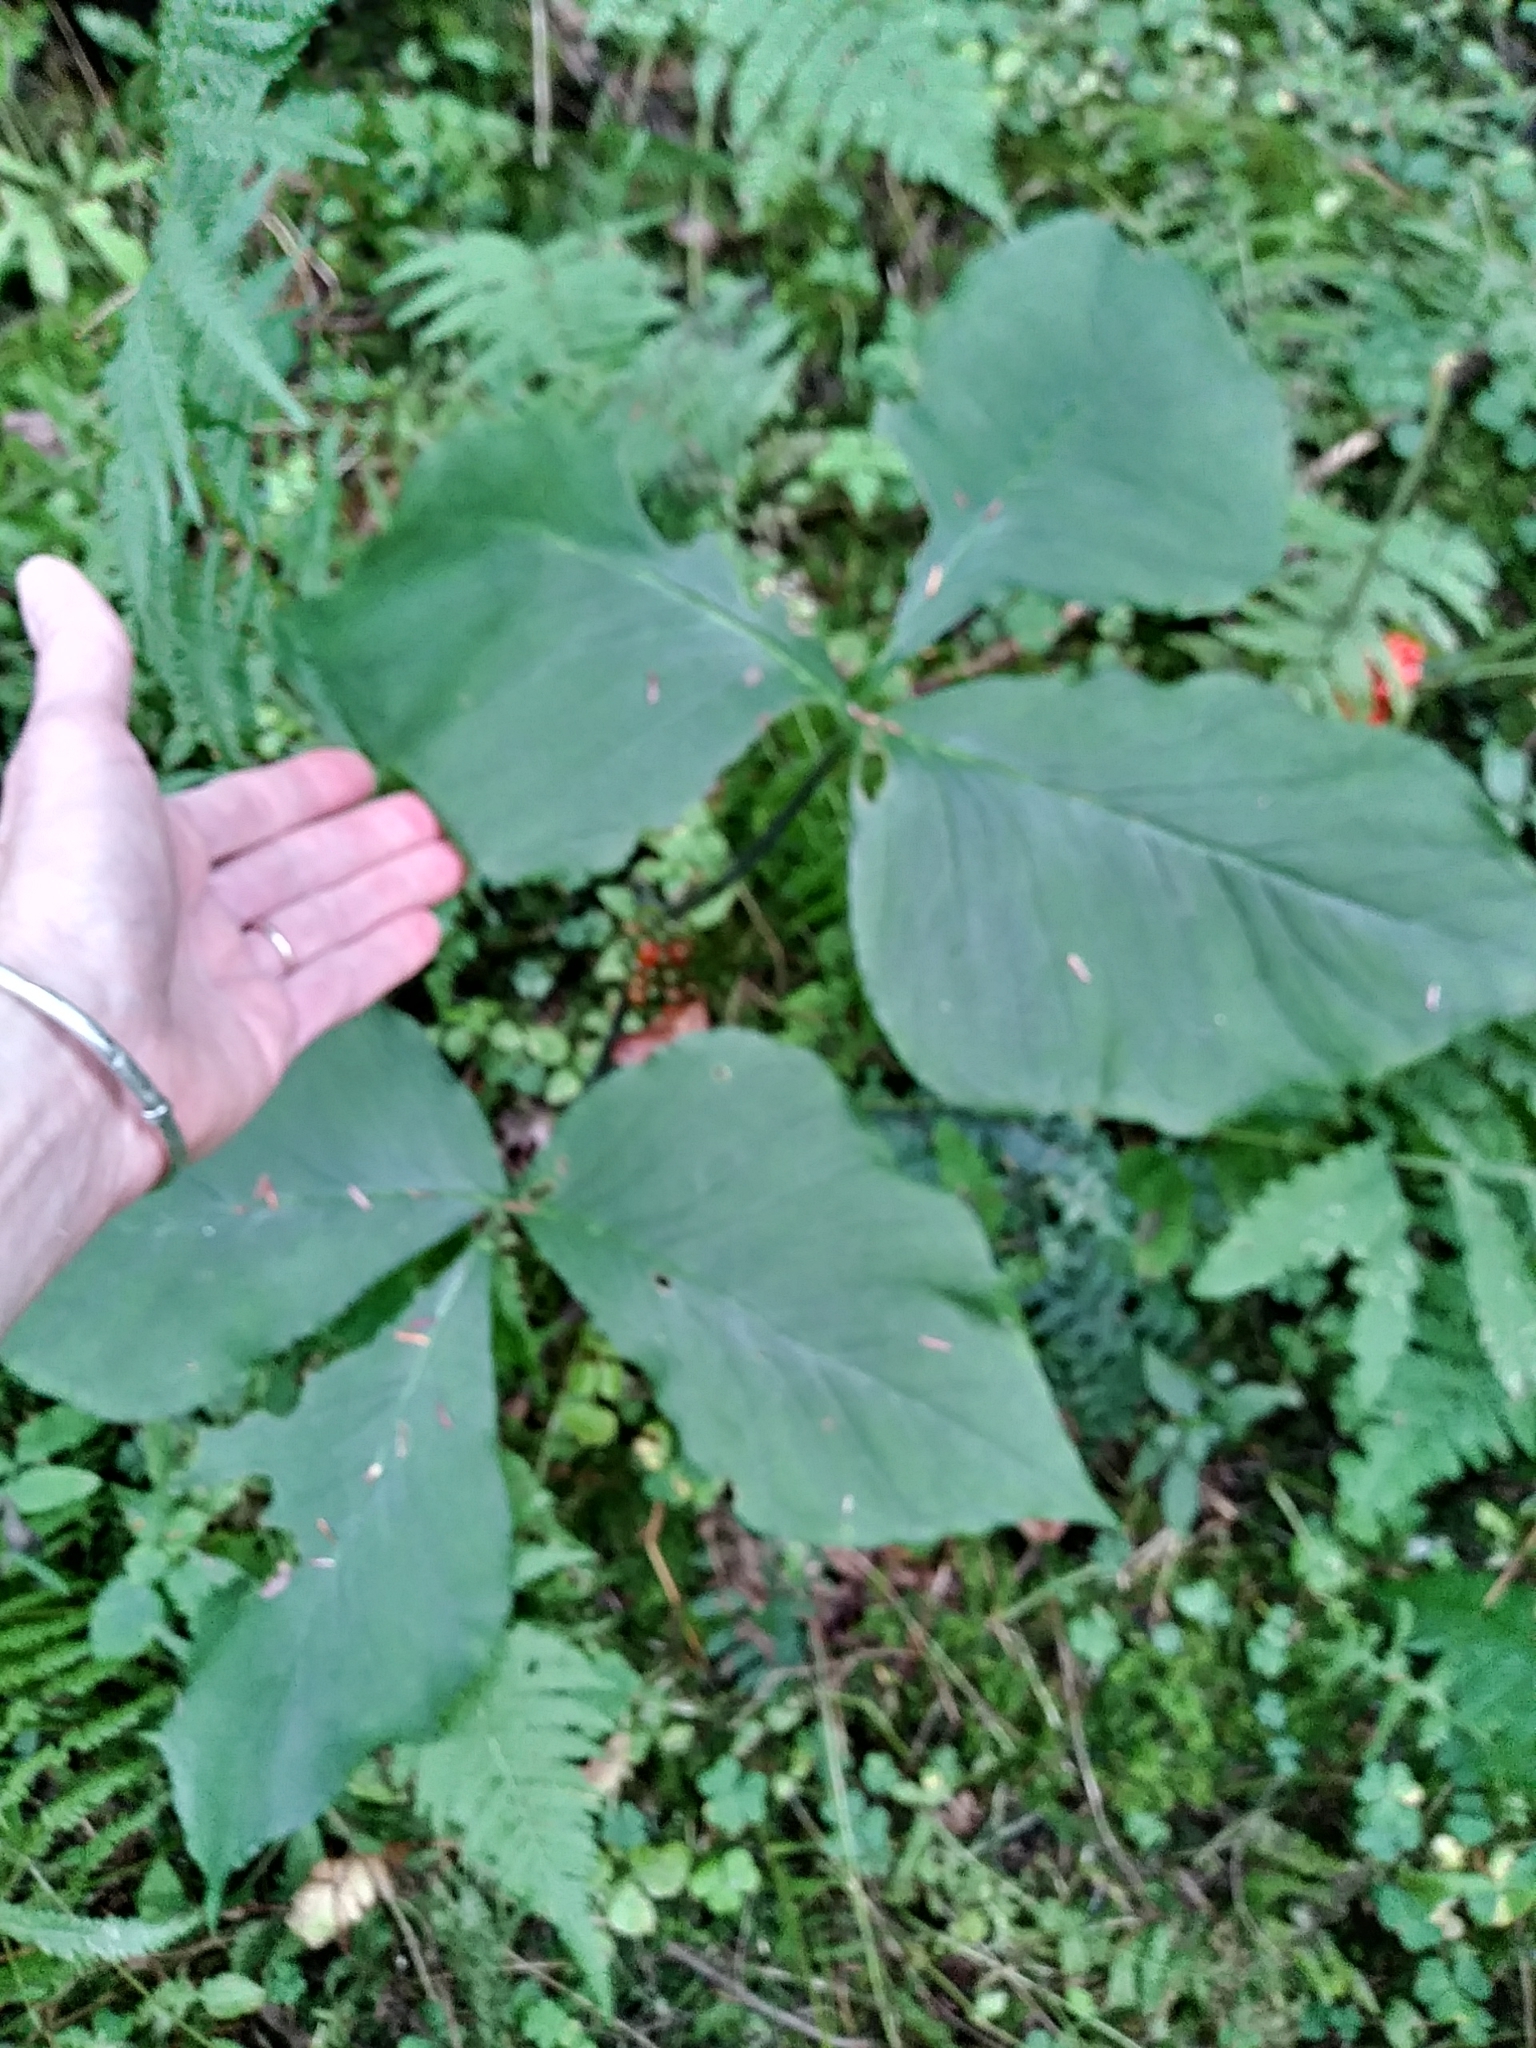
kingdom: Plantae
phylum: Tracheophyta
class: Liliopsida
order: Alismatales
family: Araceae
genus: Arisaema
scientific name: Arisaema triphyllum
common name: Jack-in-the-pulpit
